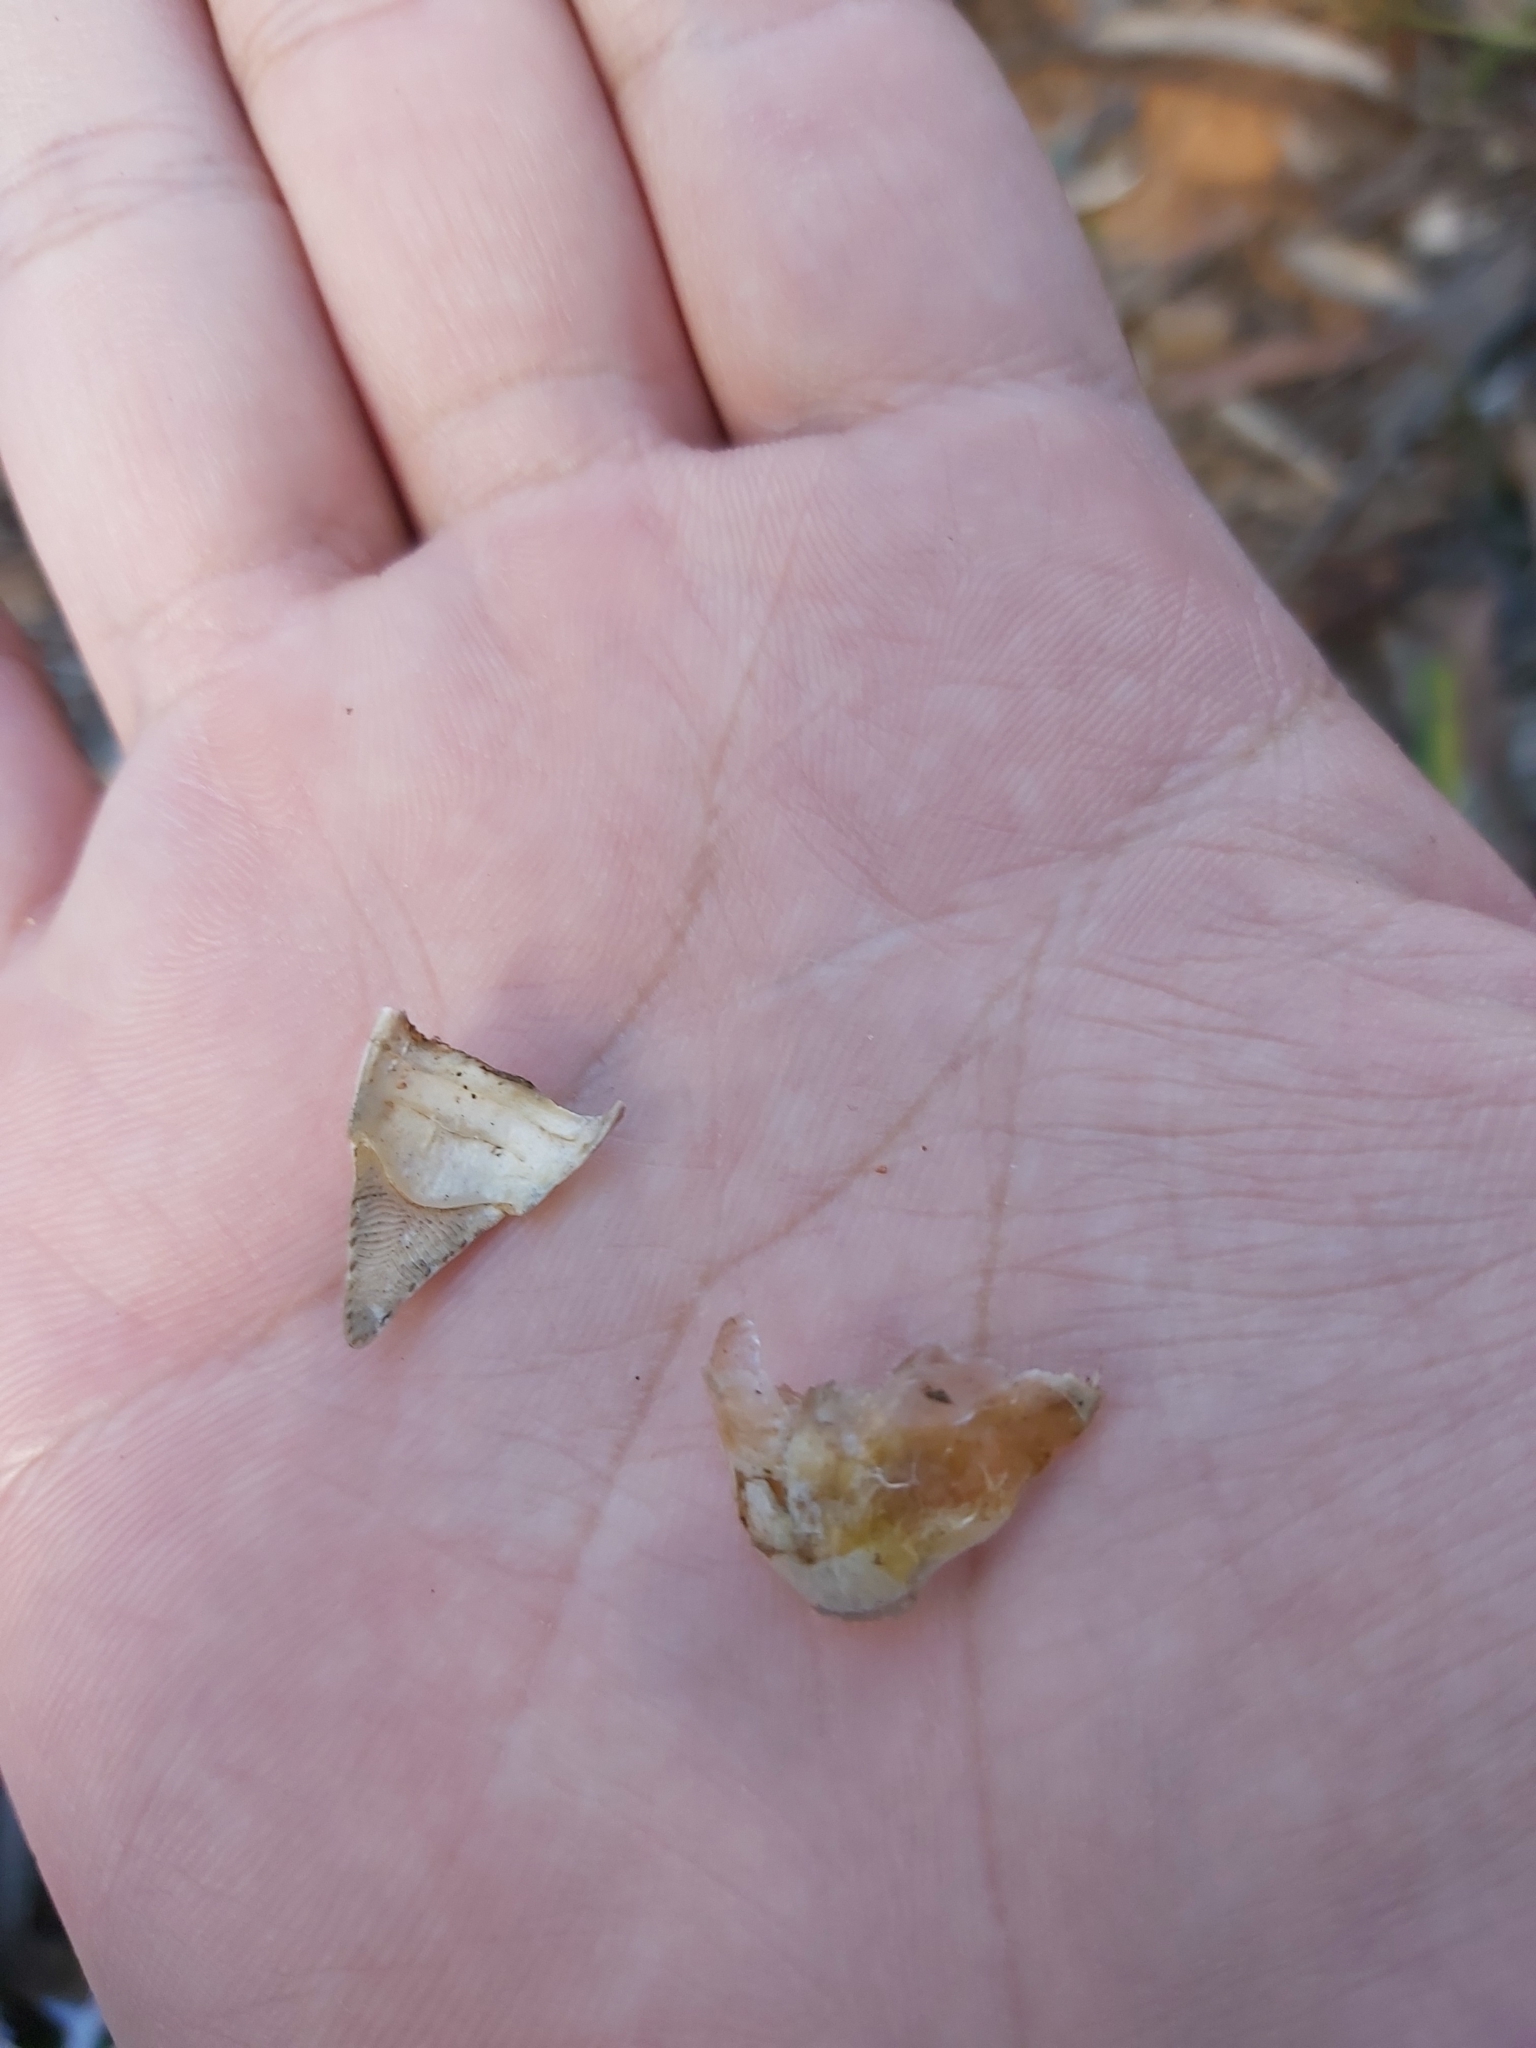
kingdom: Animalia
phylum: Chordata
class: Aves
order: Psittaciformes
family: Psittacidae
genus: Alisterus
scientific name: Alisterus scapularis
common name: Australian king parrot
